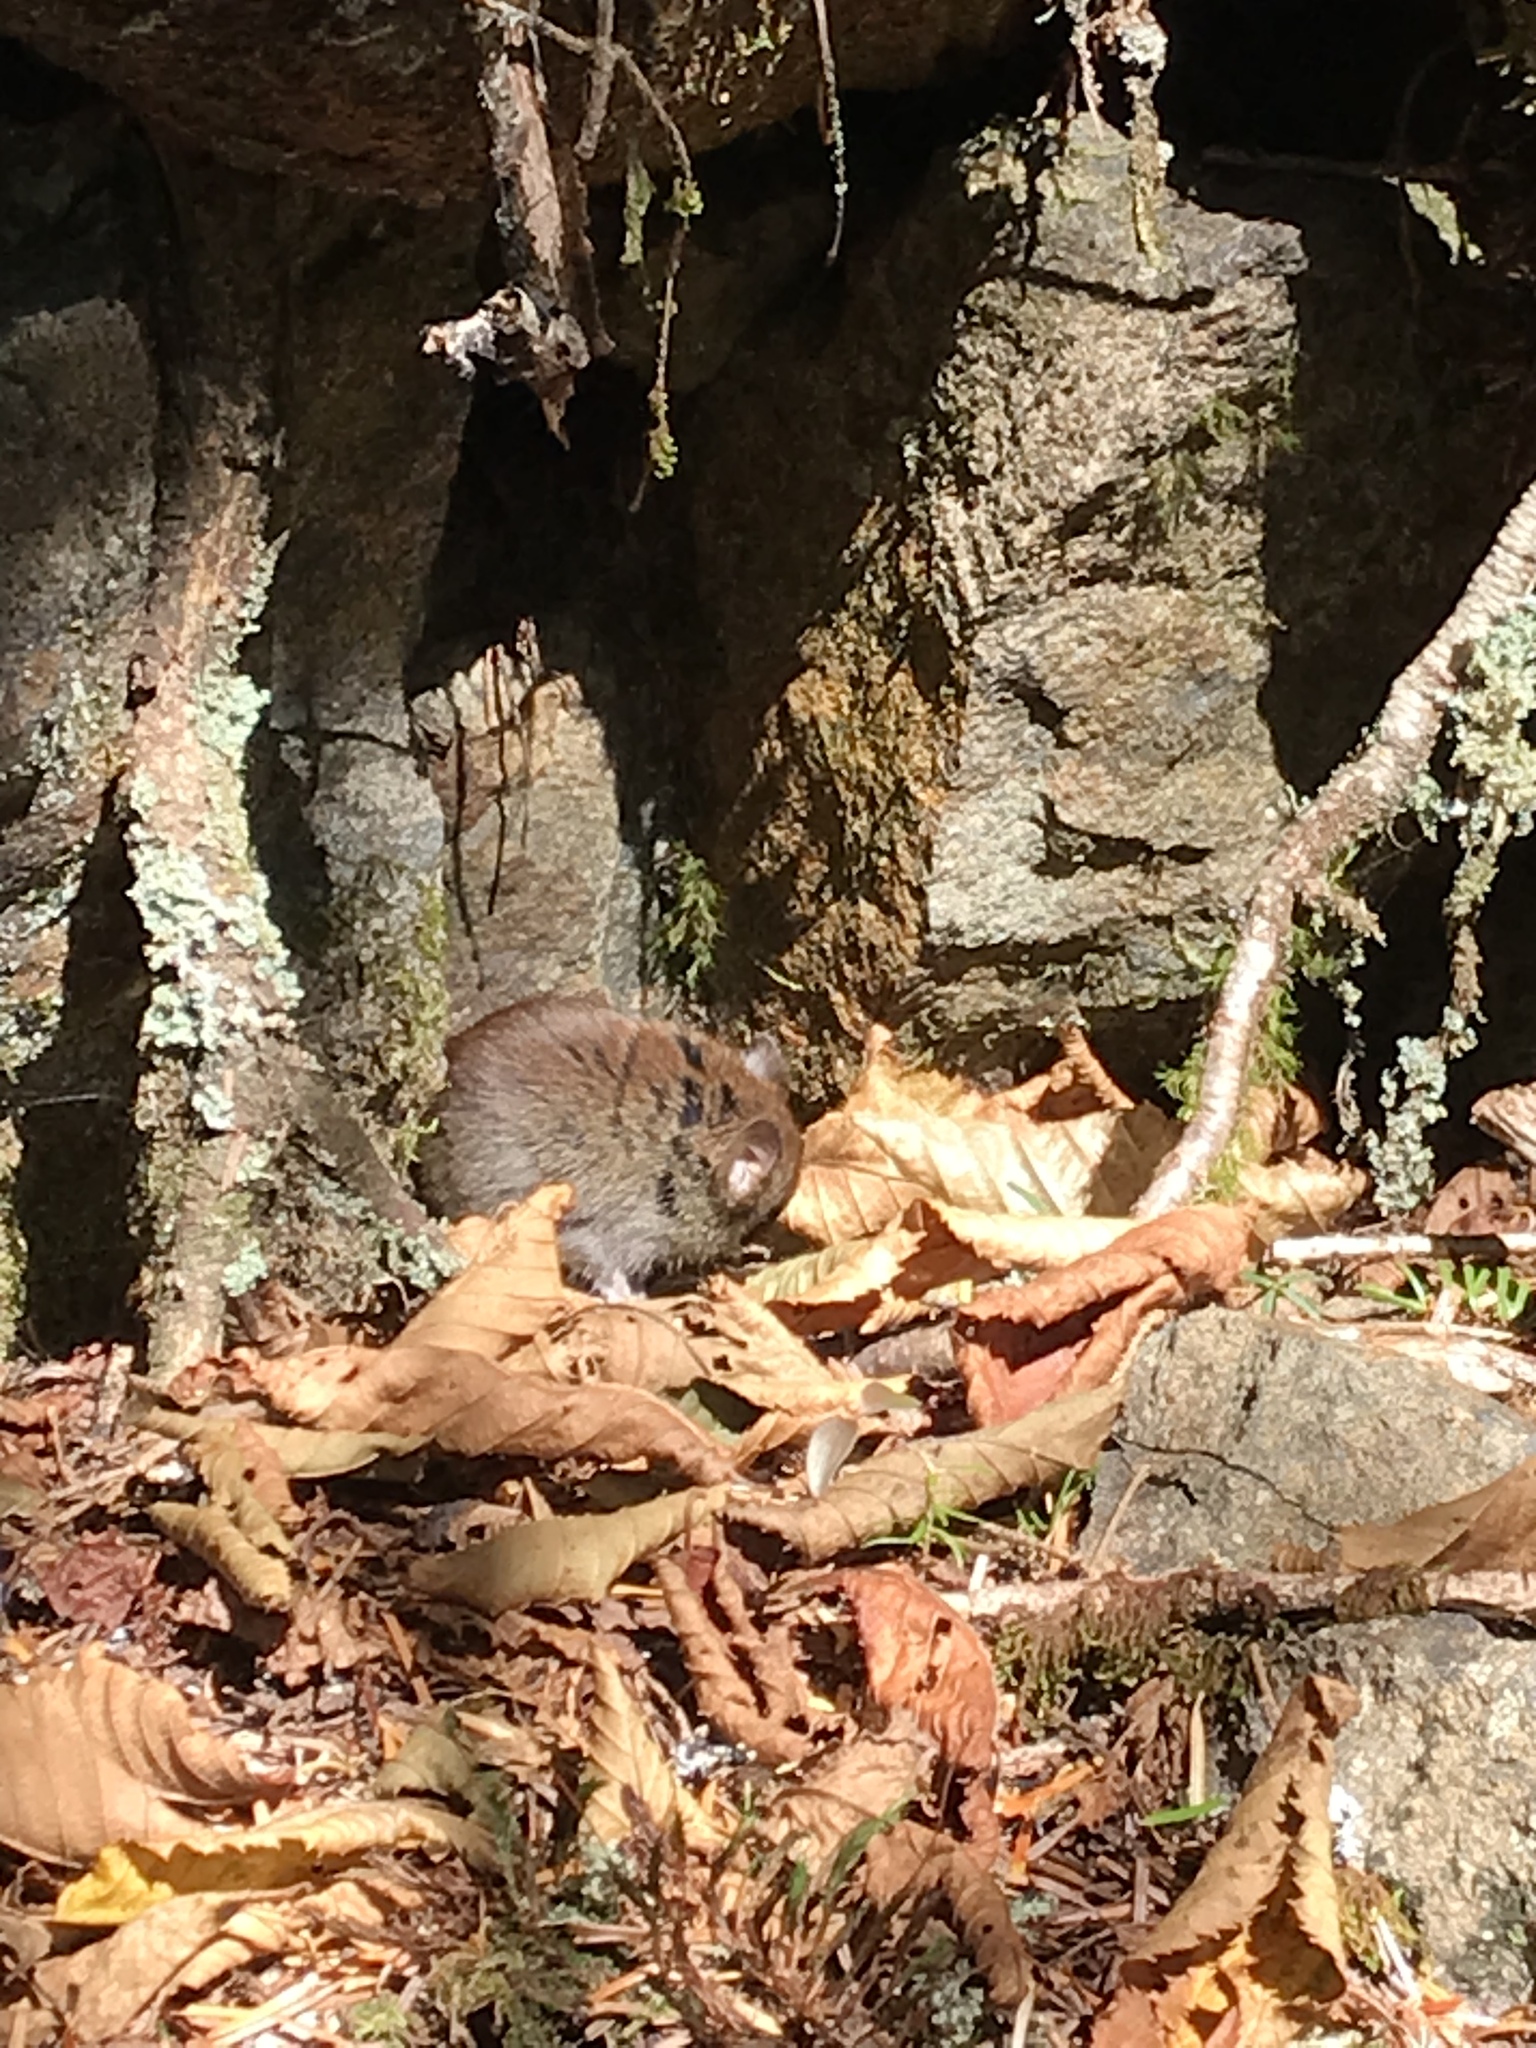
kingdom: Animalia
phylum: Chordata
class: Mammalia
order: Rodentia
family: Cricetidae
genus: Myodes
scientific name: Myodes gapperi
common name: Southern red-backed vole
